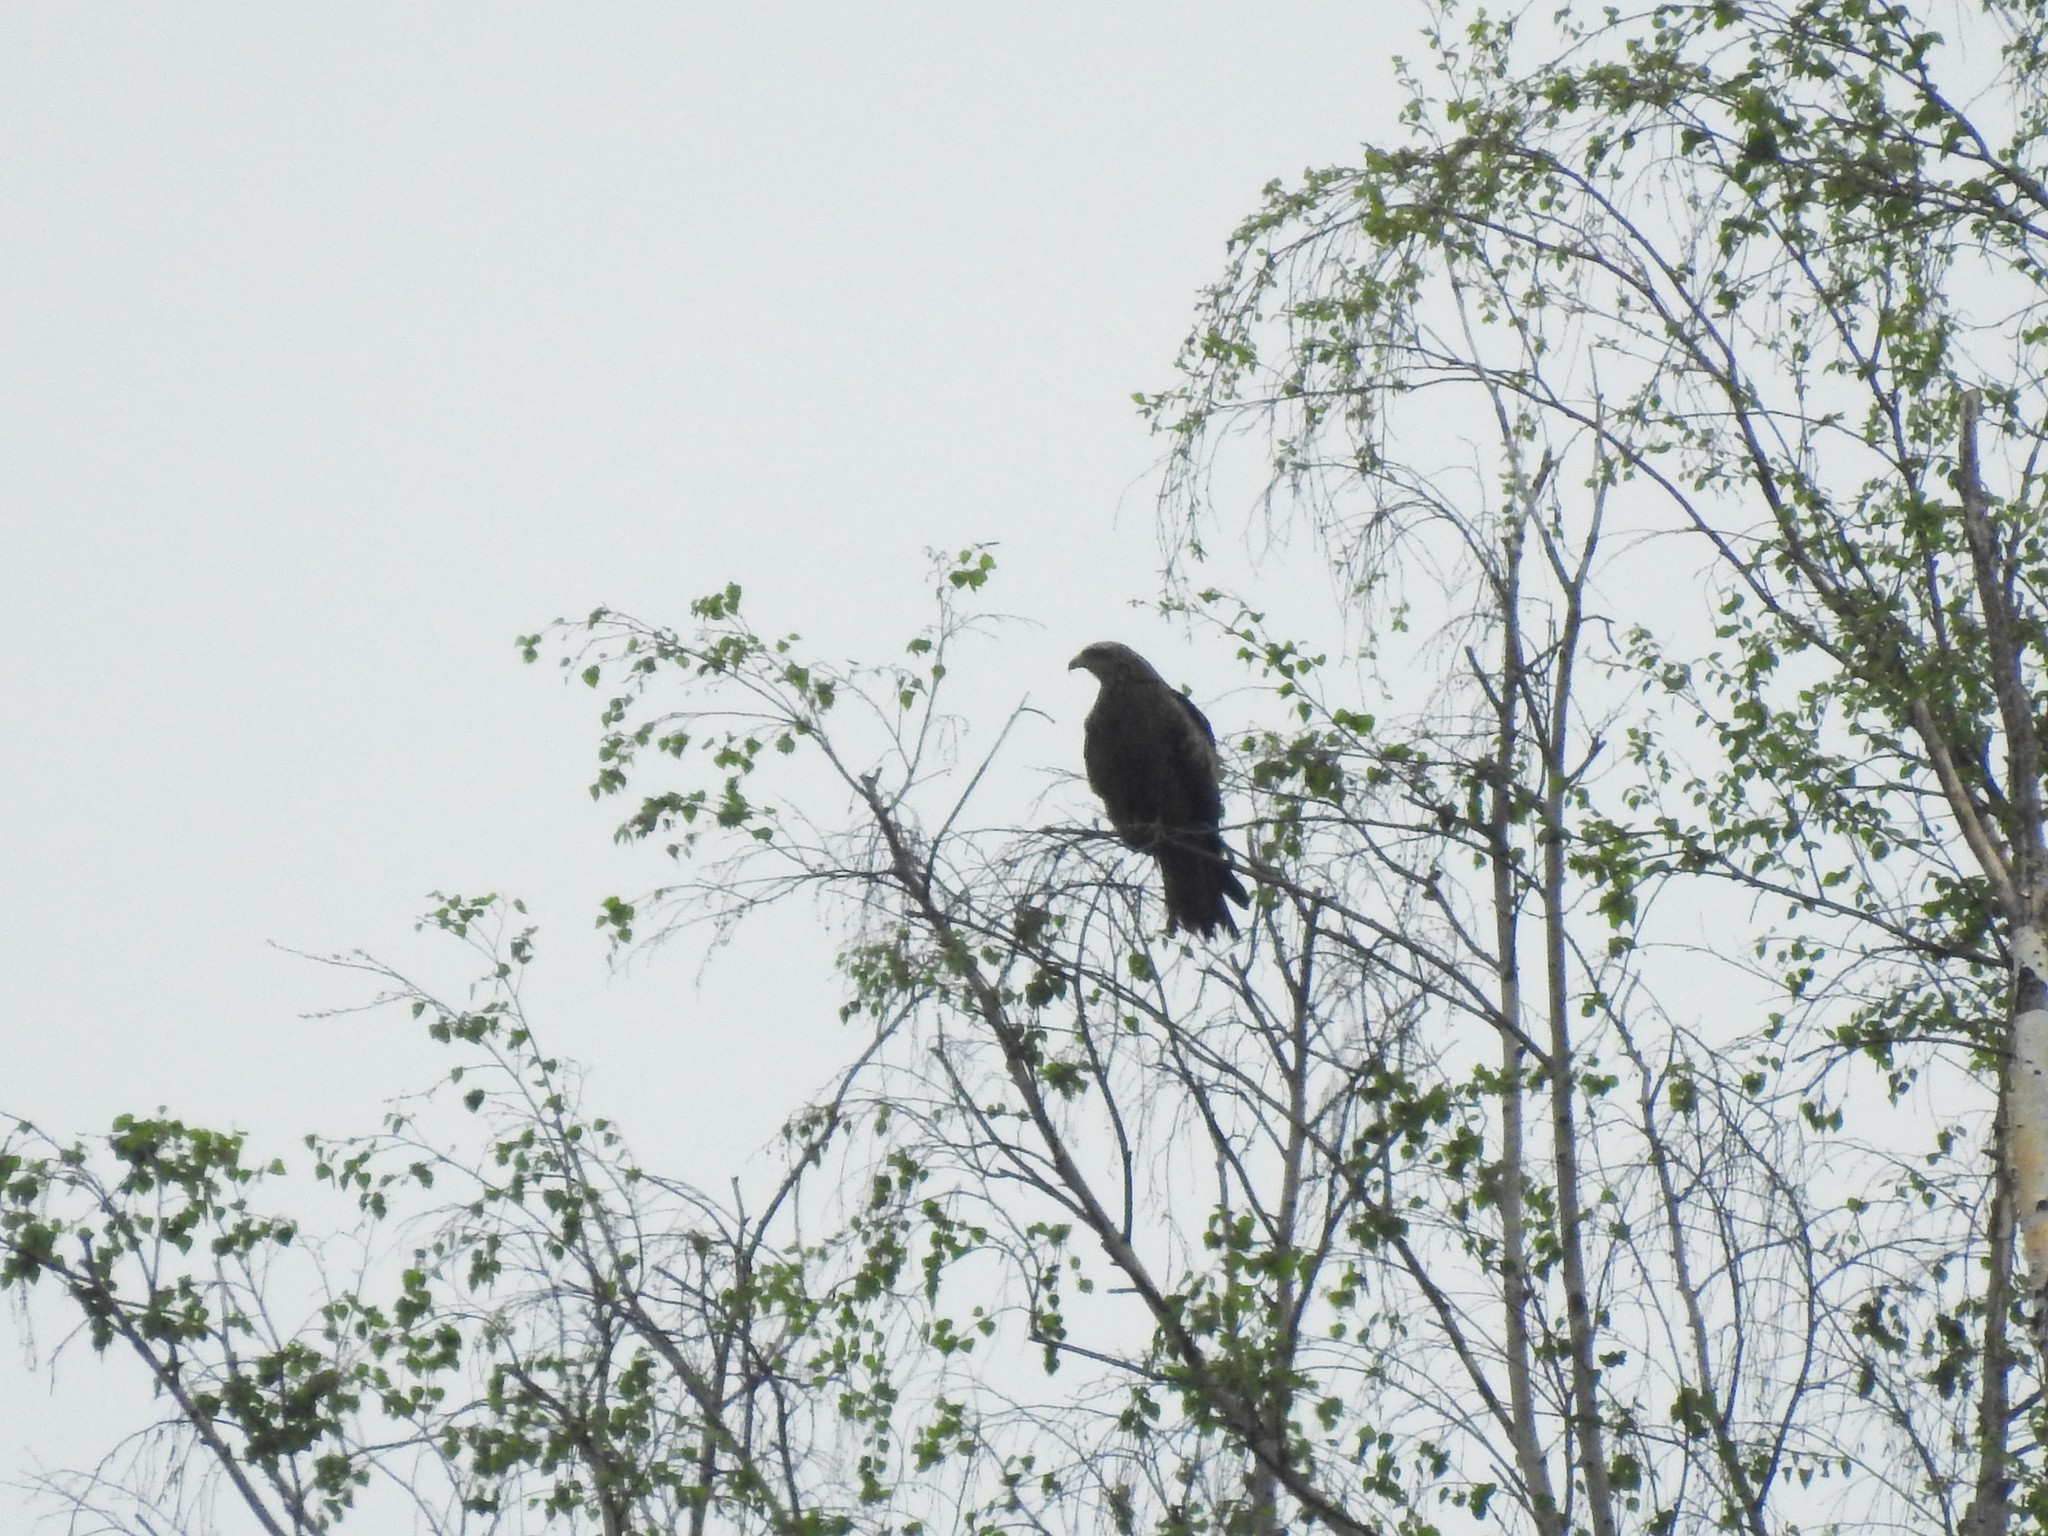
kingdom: Animalia
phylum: Chordata
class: Aves
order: Accipitriformes
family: Accipitridae
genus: Milvus
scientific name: Milvus migrans
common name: Black kite
